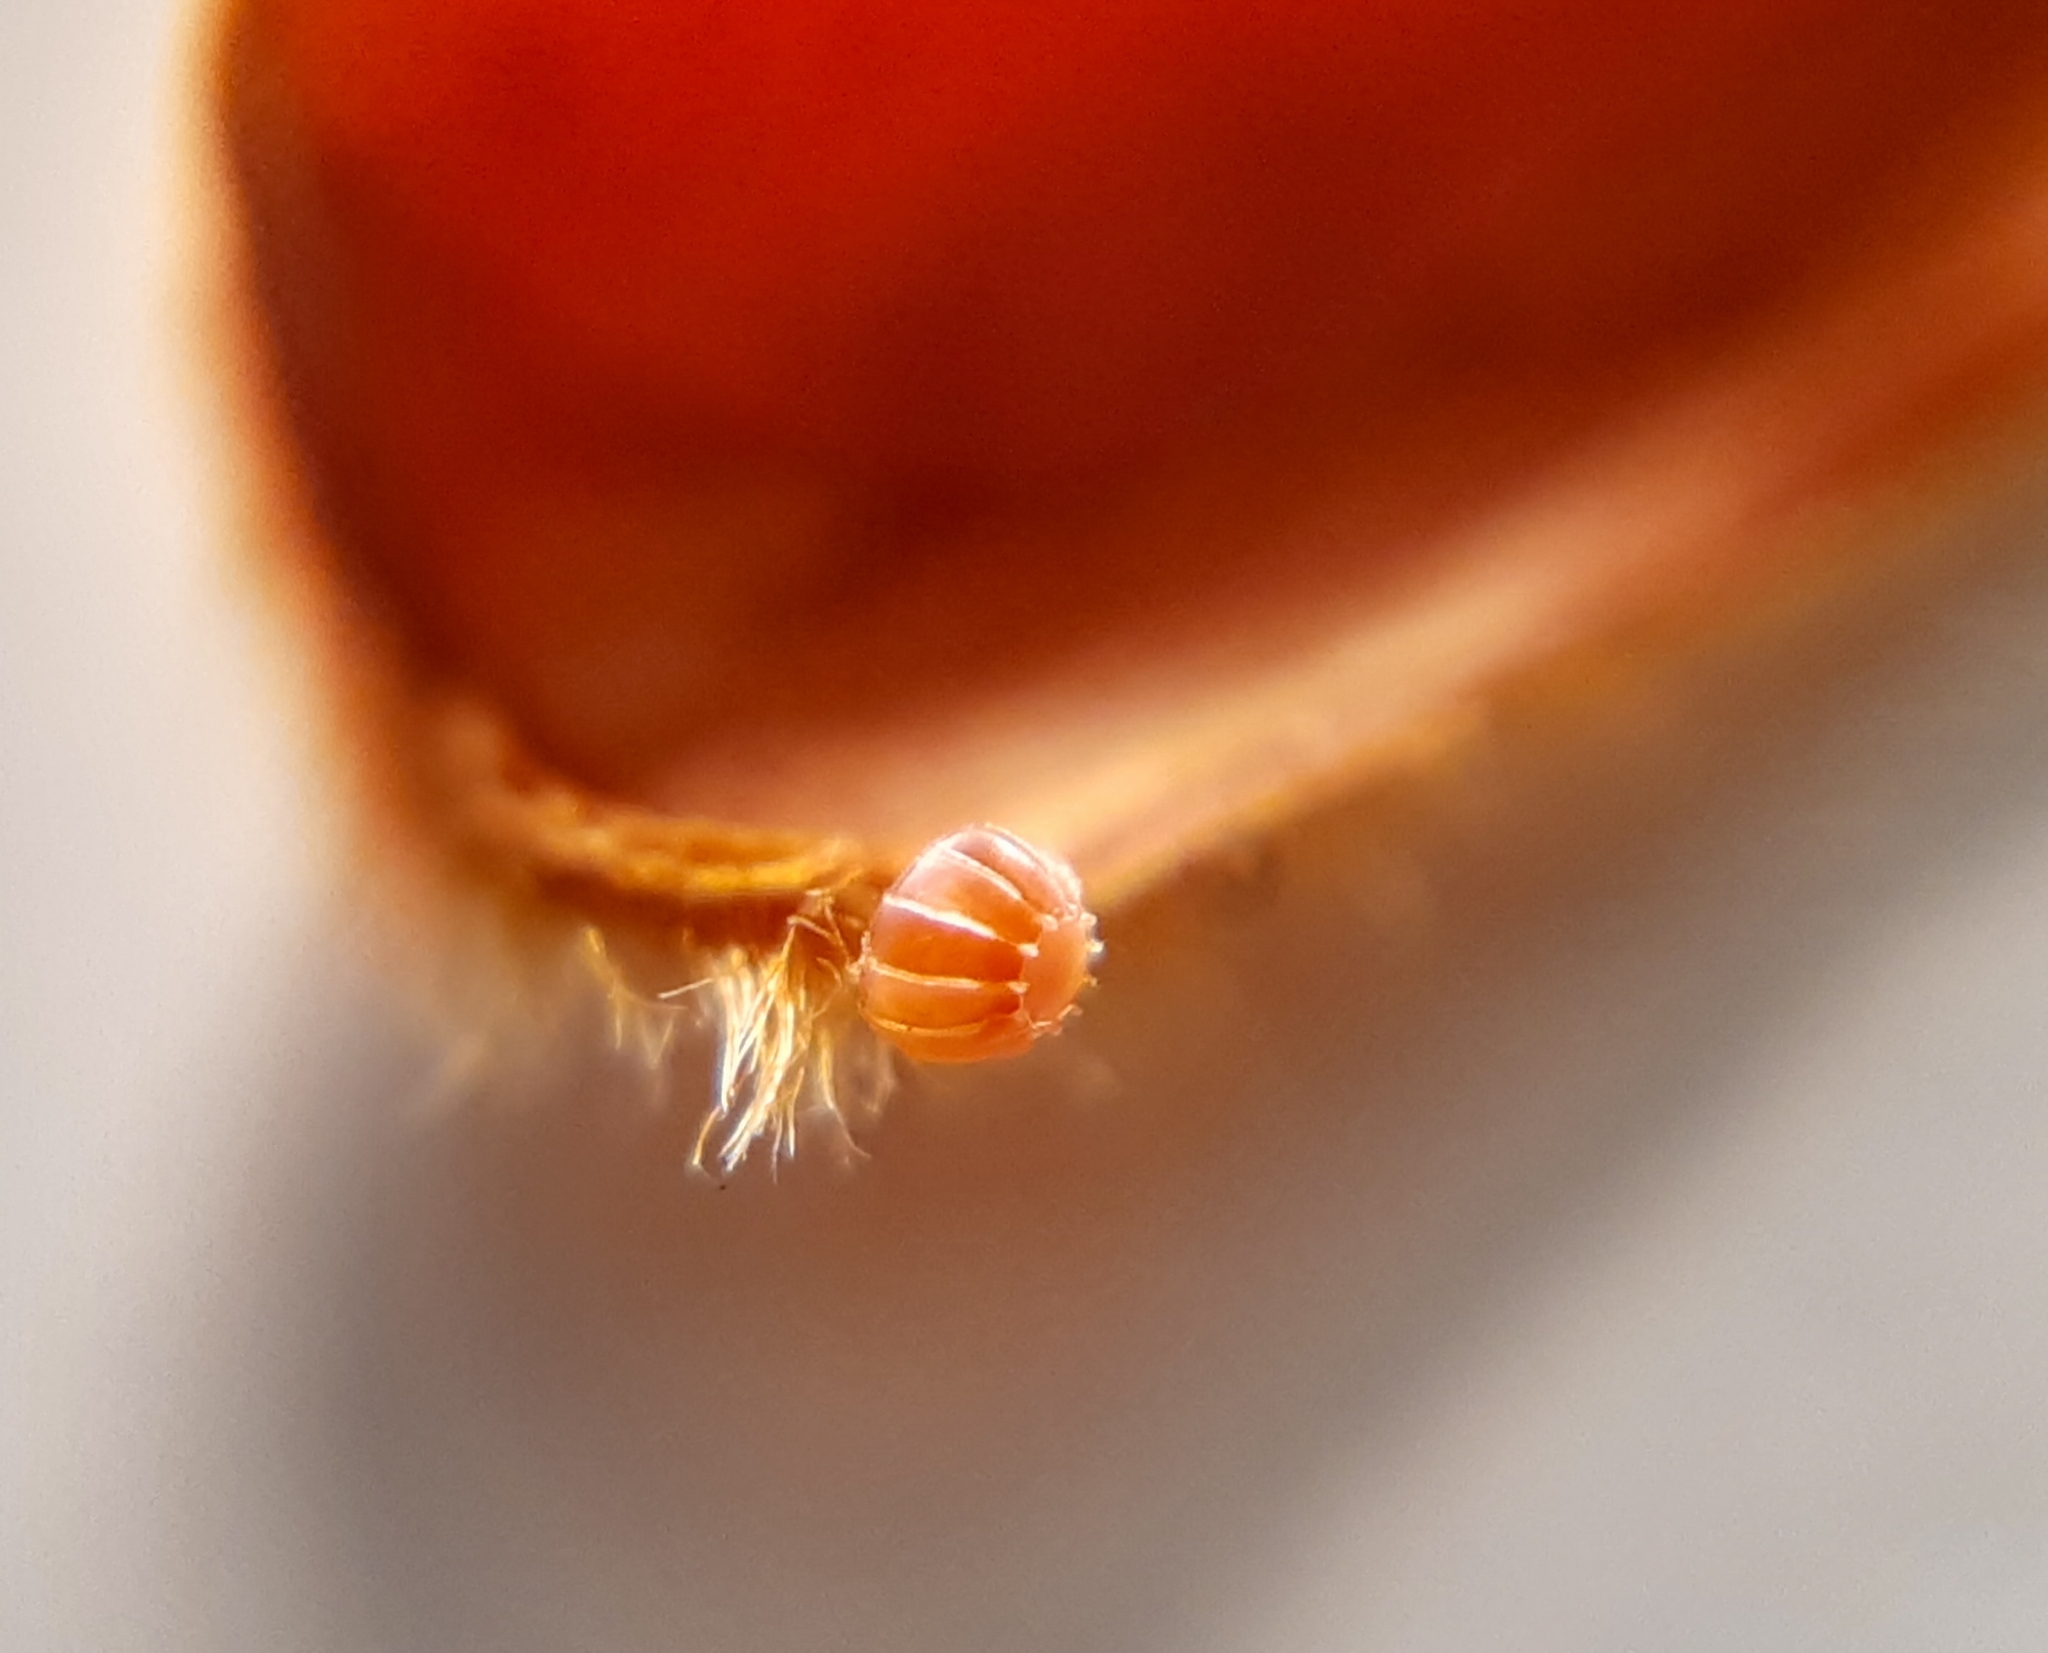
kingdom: Animalia
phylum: Arthropoda
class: Insecta
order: Lepidoptera
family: Nymphalidae
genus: Marpesia
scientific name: Marpesia petreus
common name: Red dagger wing
